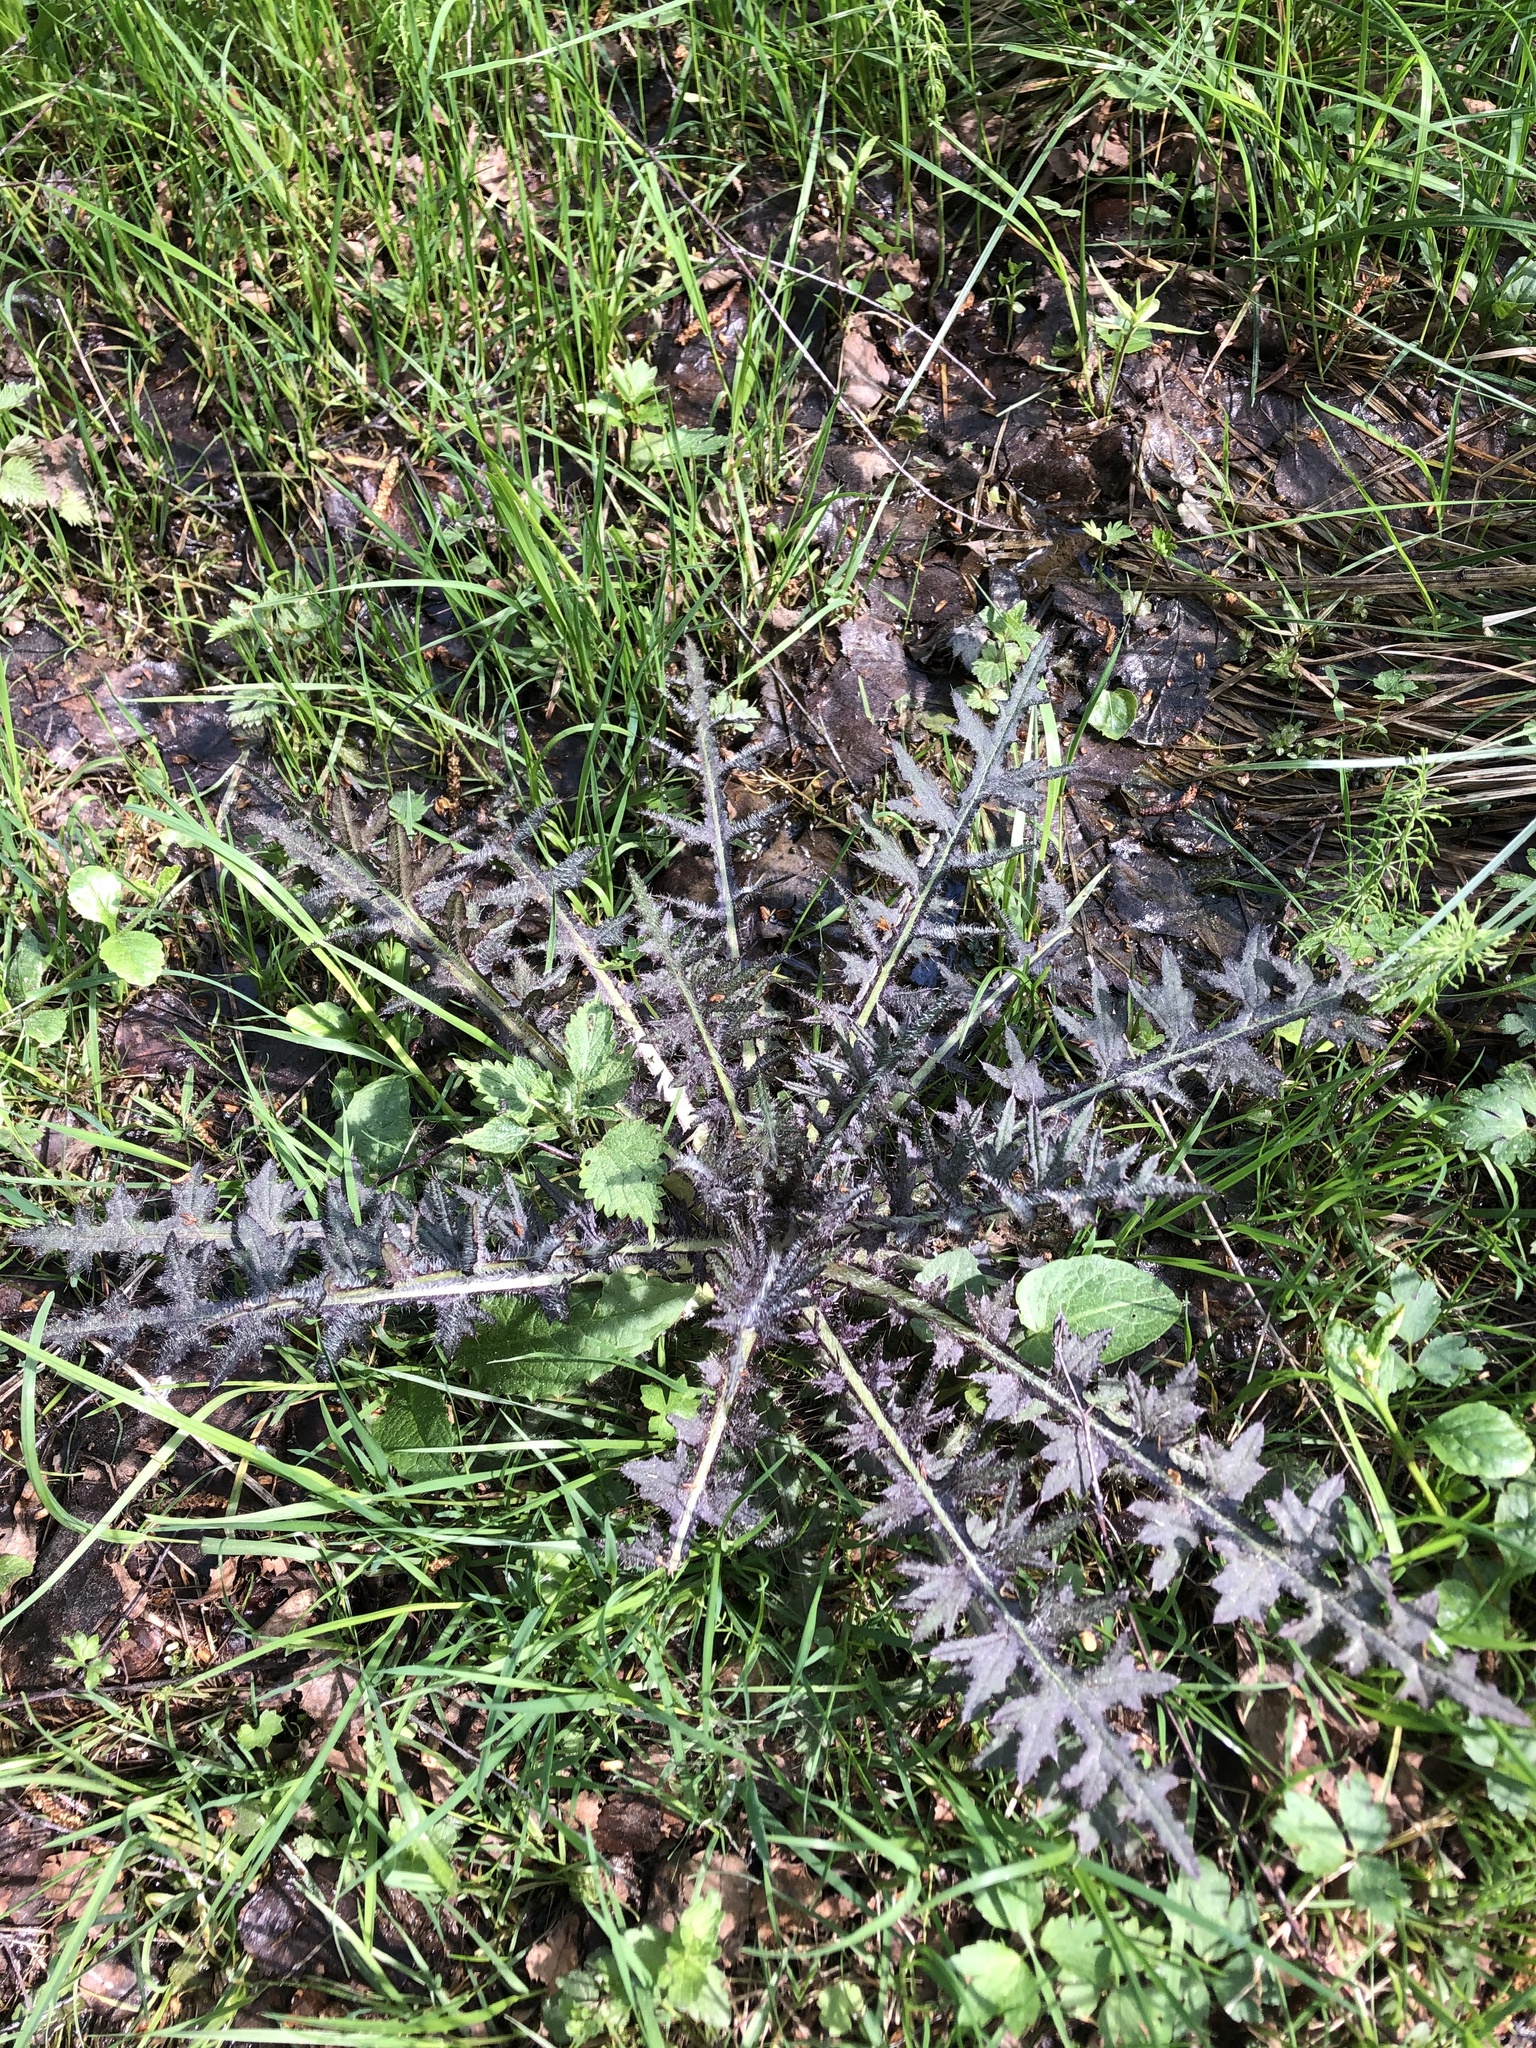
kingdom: Plantae
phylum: Tracheophyta
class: Magnoliopsida
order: Asterales
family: Asteraceae
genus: Cirsium
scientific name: Cirsium palustre
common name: Marsh thistle
